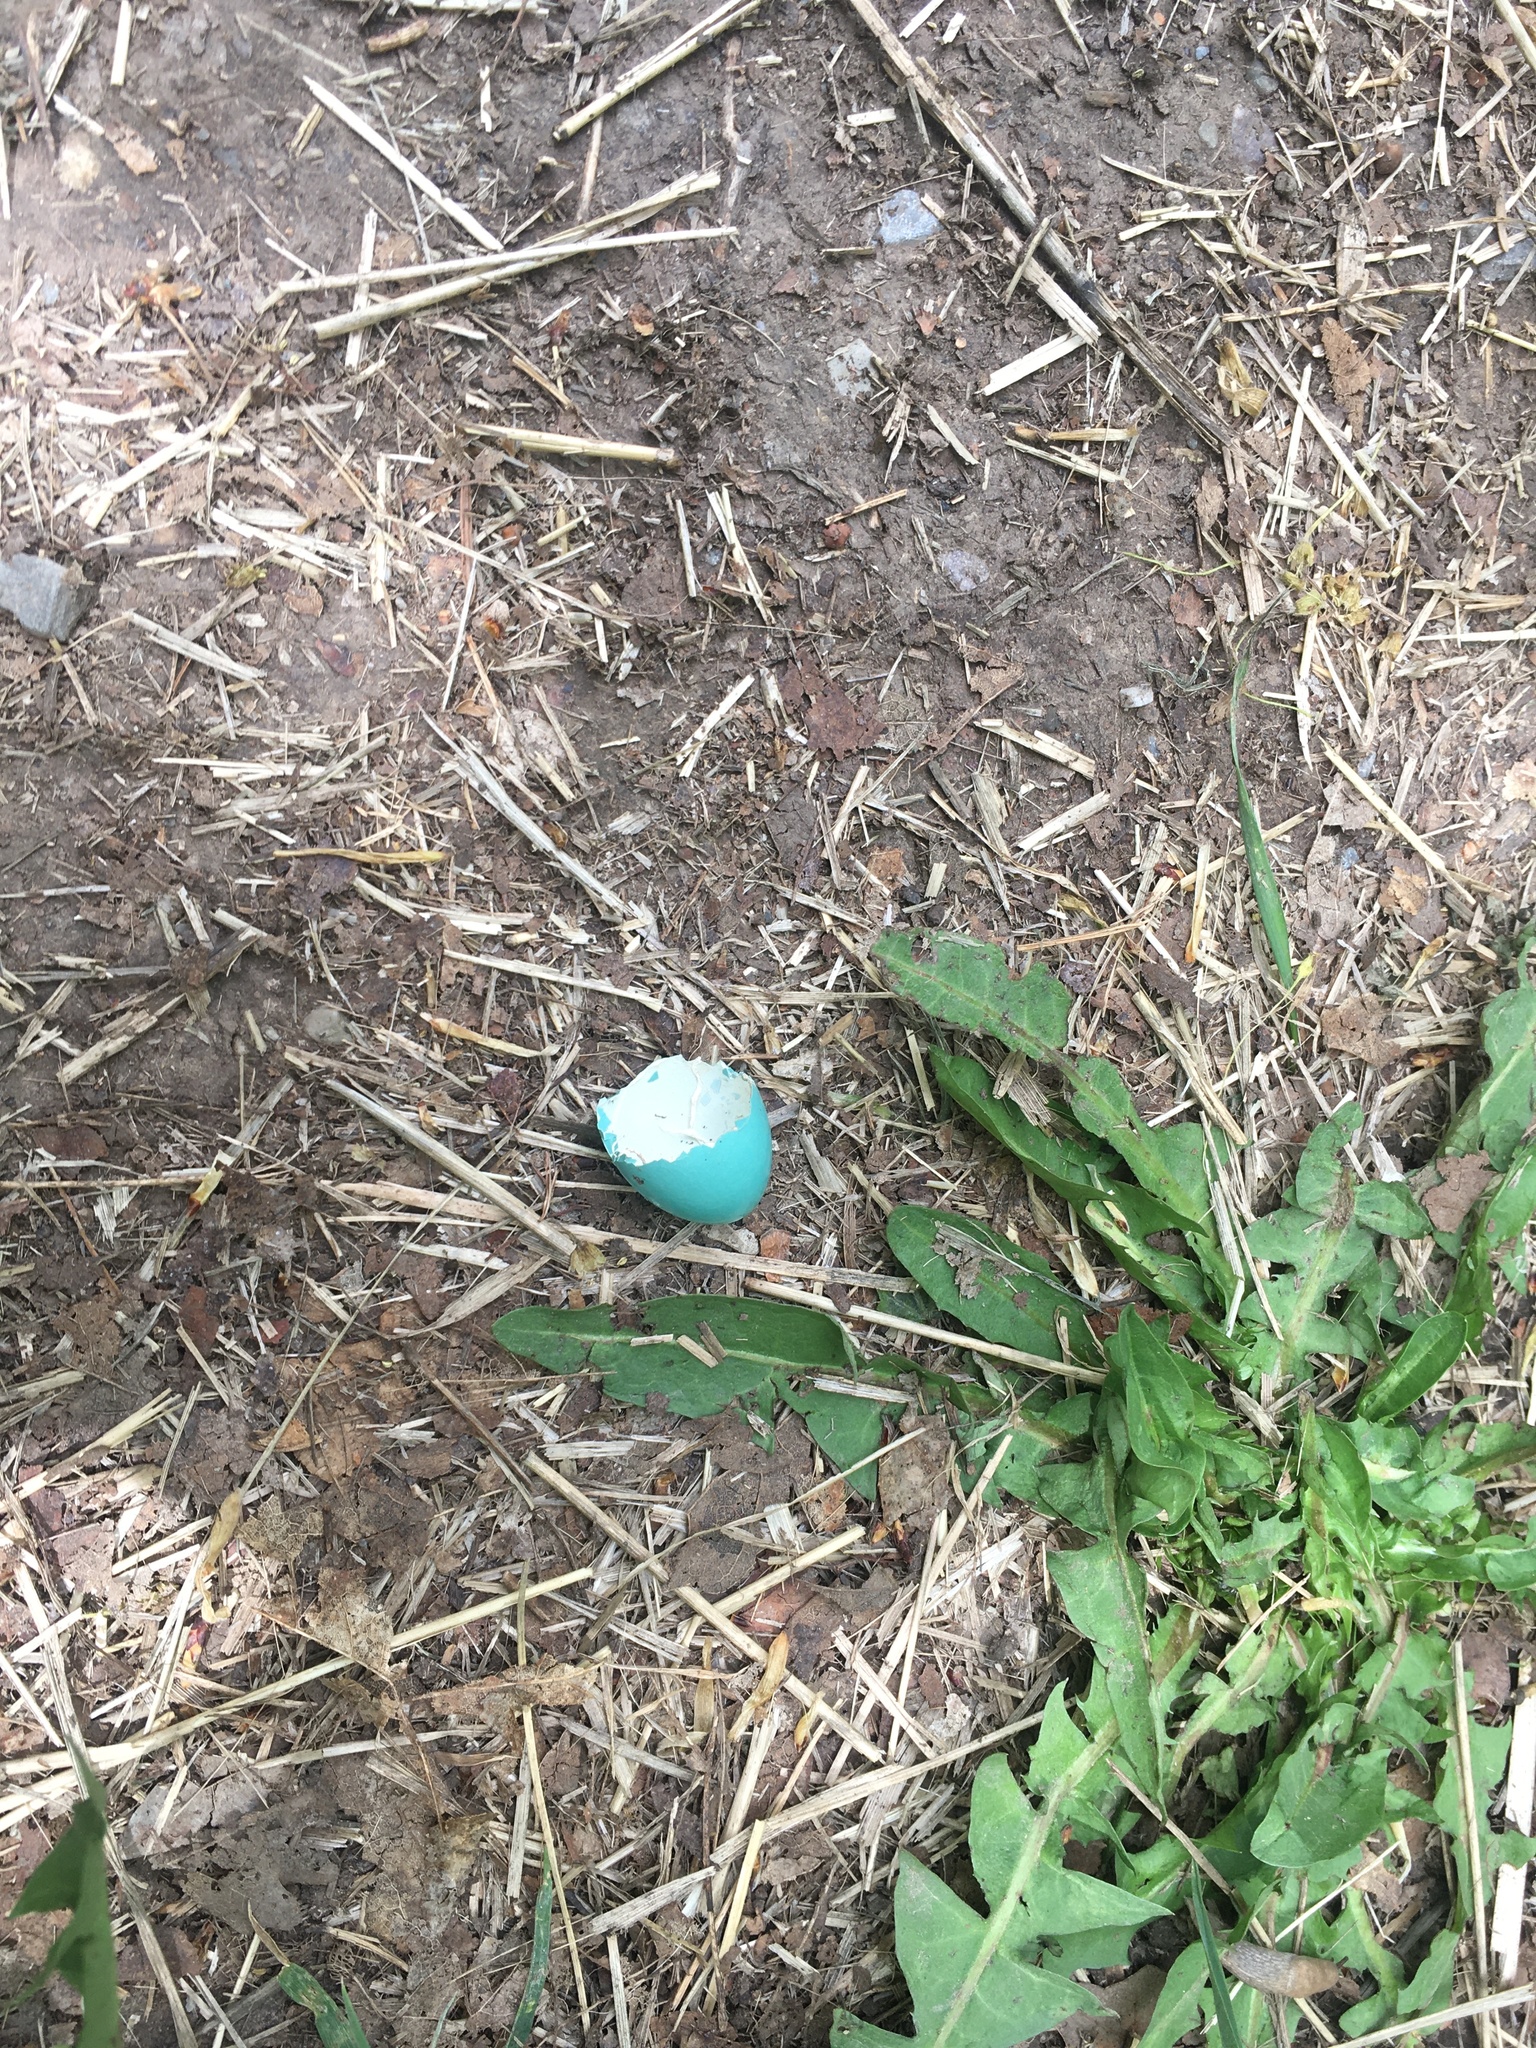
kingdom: Animalia
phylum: Chordata
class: Aves
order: Passeriformes
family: Turdidae
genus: Turdus
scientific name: Turdus migratorius
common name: American robin
